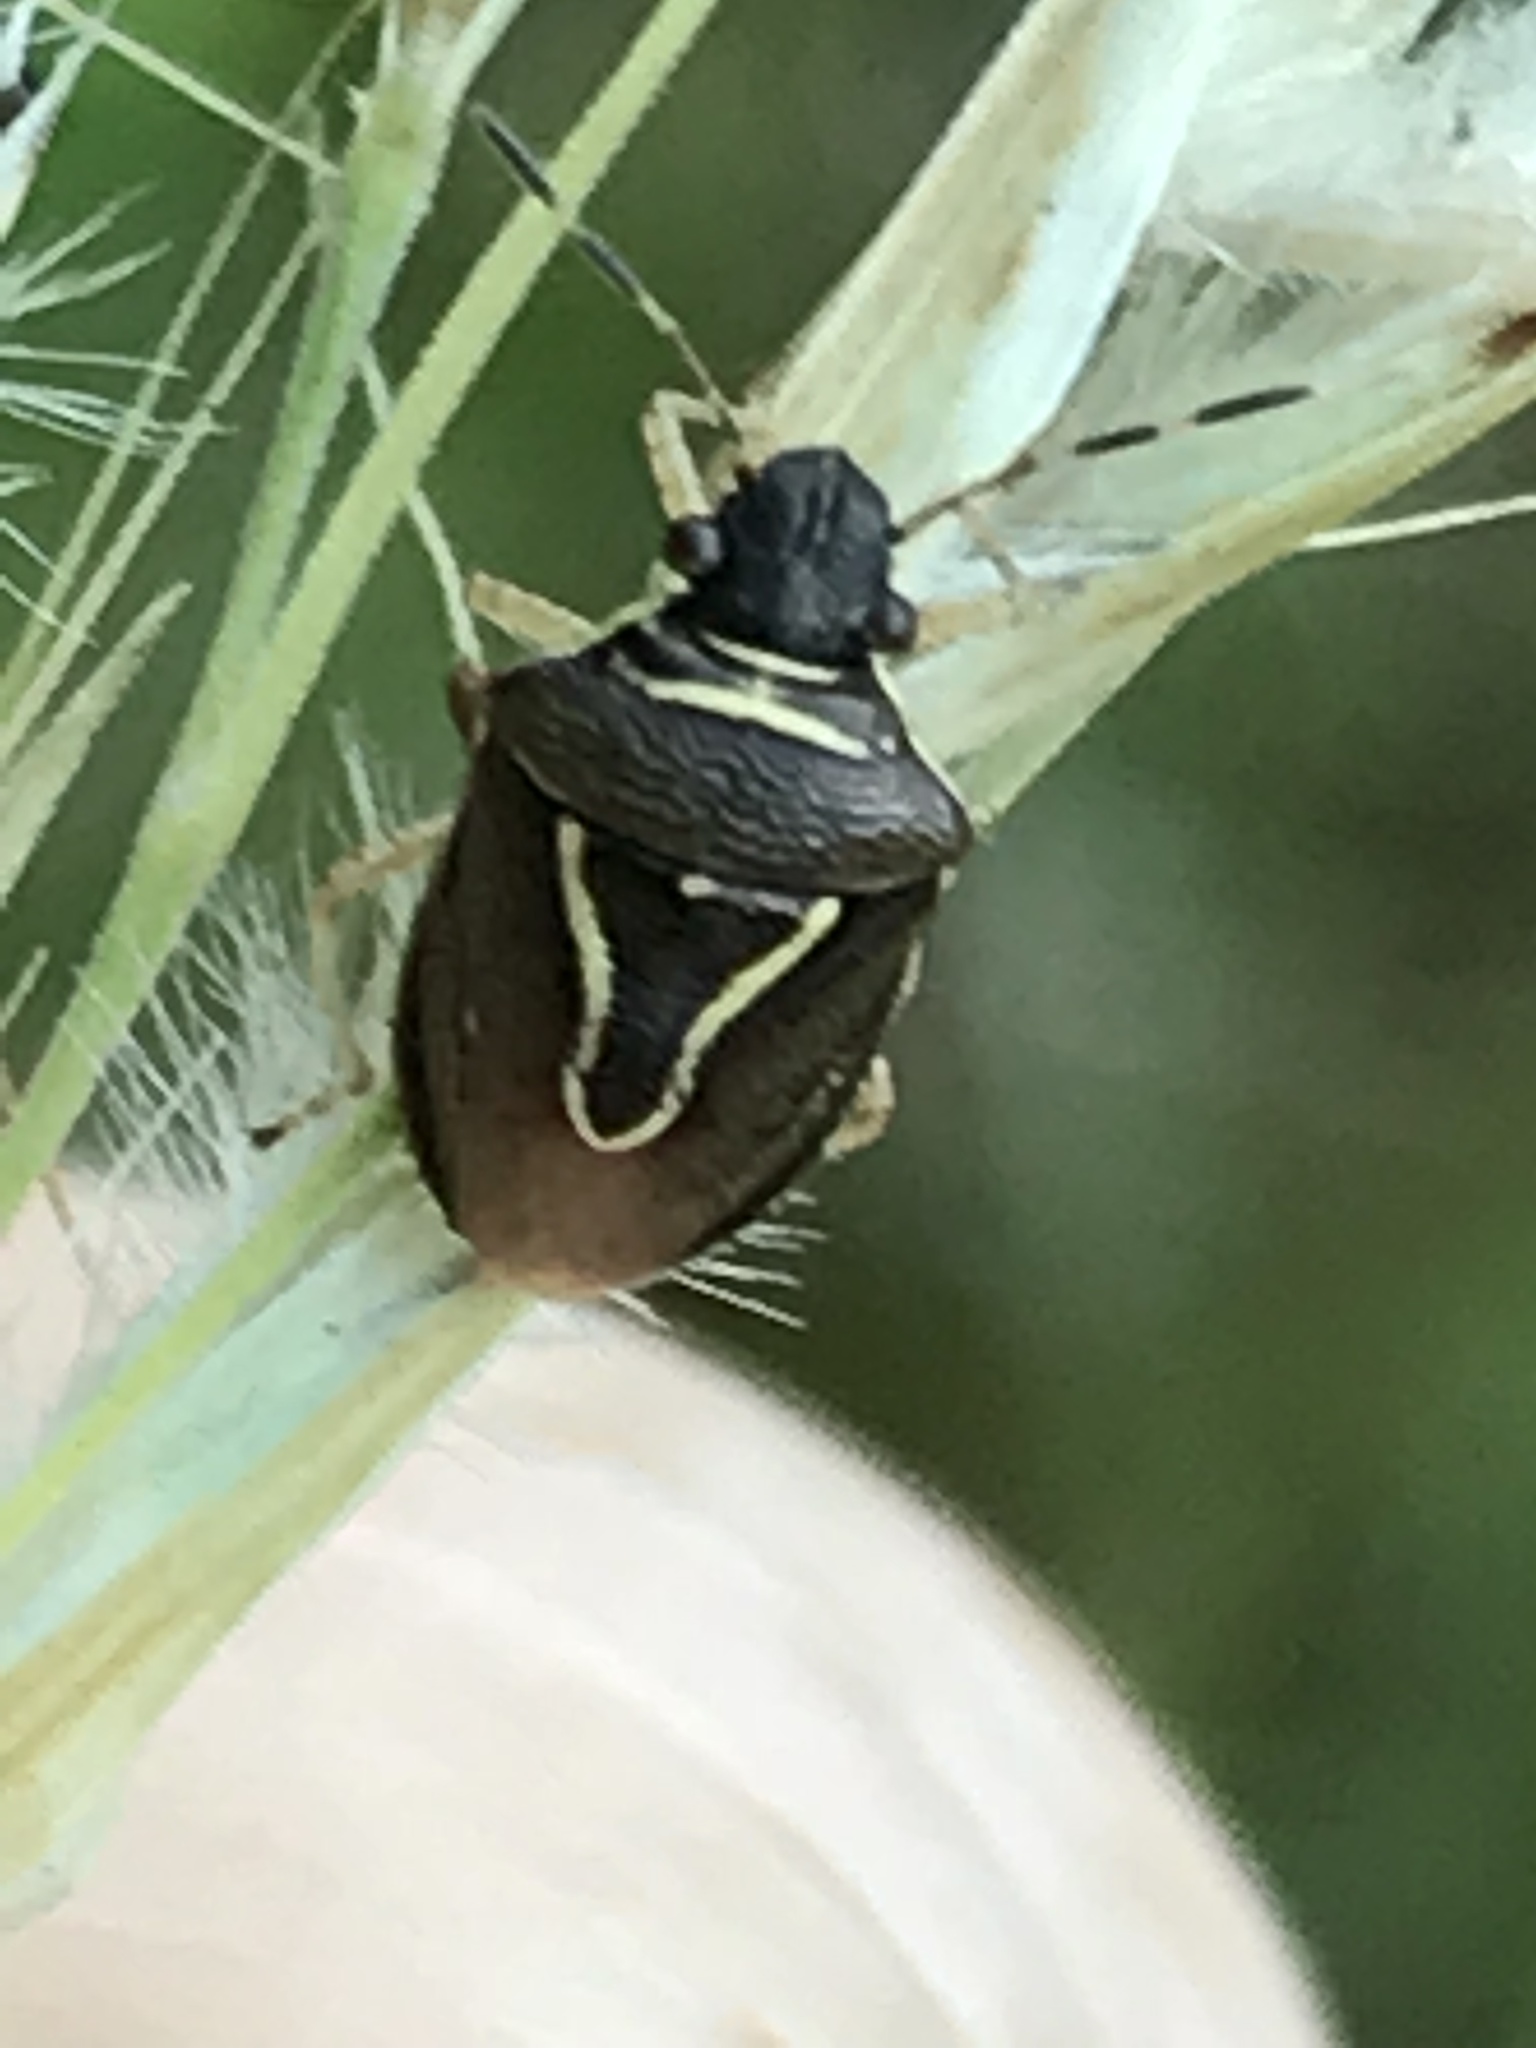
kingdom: Animalia
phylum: Arthropoda
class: Insecta
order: Hemiptera
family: Pentatomidae
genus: Mormidea
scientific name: Mormidea lugens
